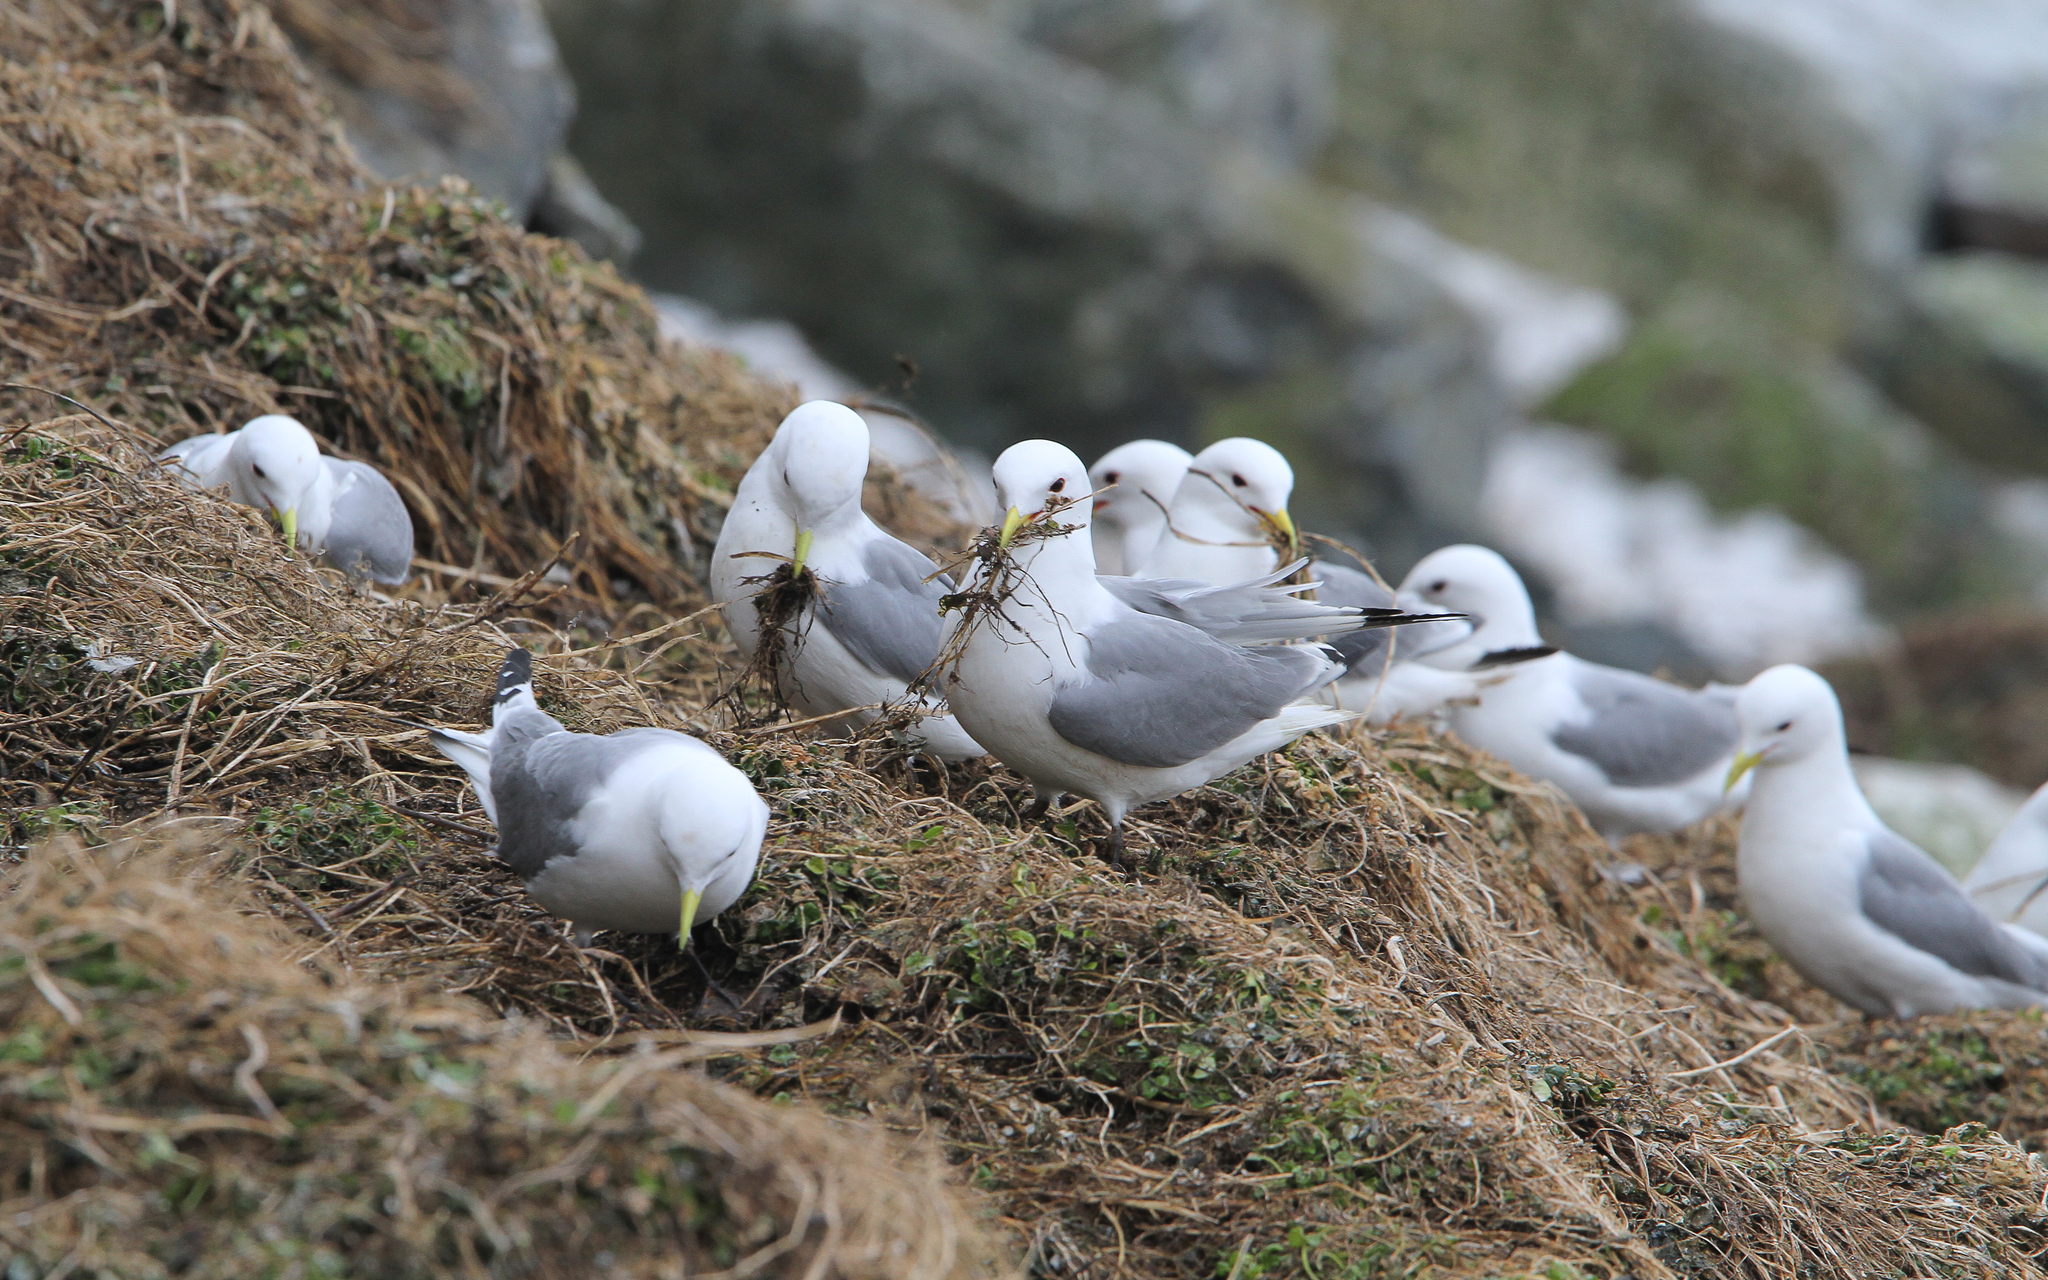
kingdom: Animalia
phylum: Chordata
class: Aves
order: Charadriiformes
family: Laridae
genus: Rissa
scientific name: Rissa tridactyla
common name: Black-legged kittiwake
